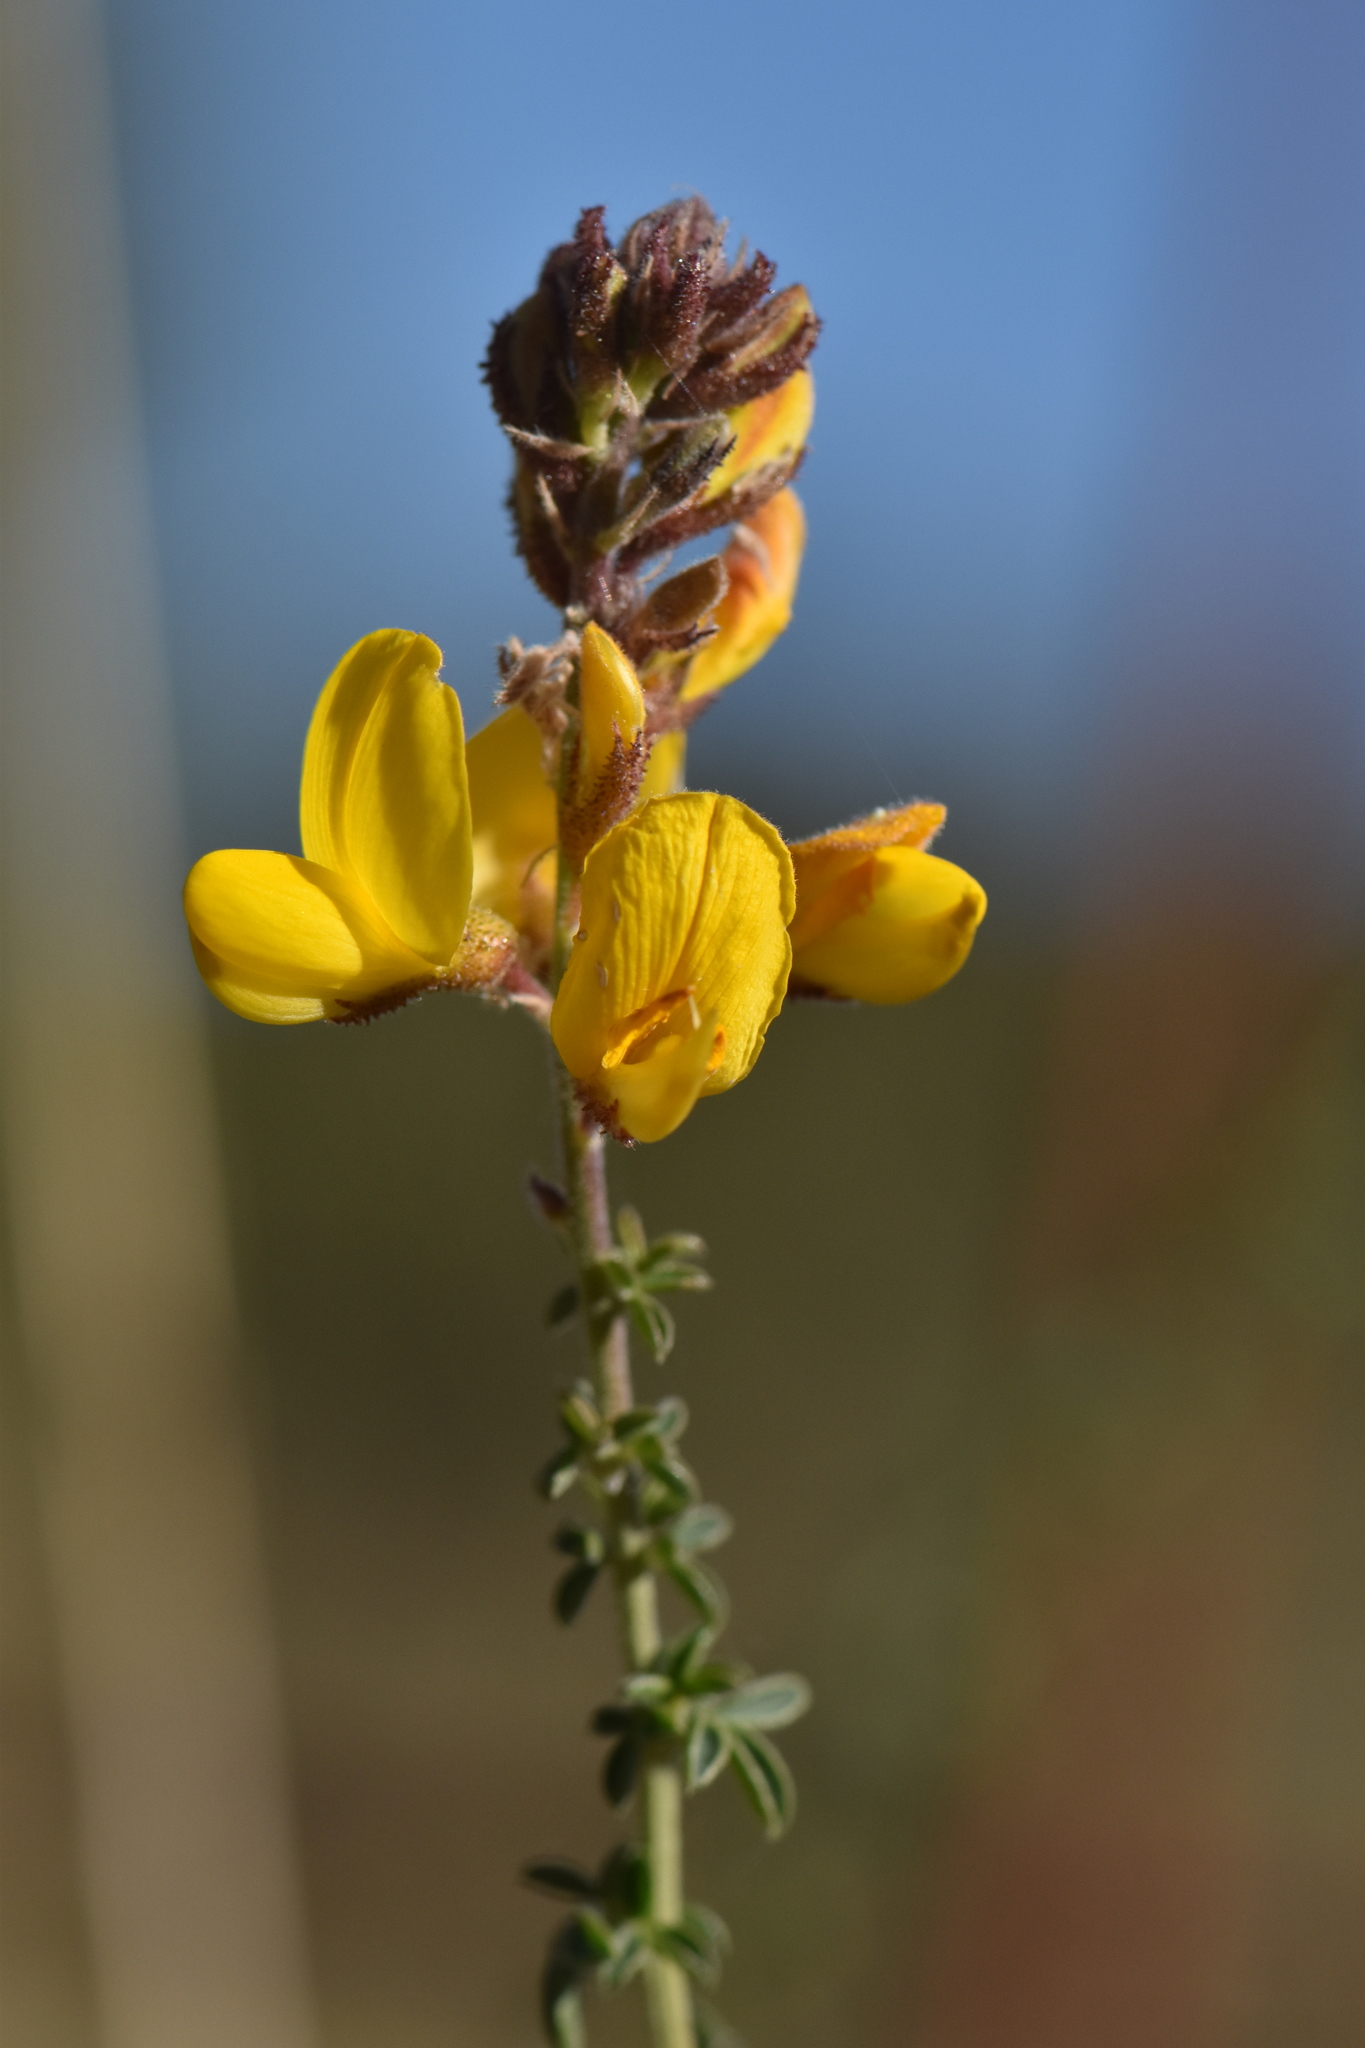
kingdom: Plantae
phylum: Tracheophyta
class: Magnoliopsida
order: Fabales
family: Fabaceae
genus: Adenocarpus
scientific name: Adenocarpus complicatus
